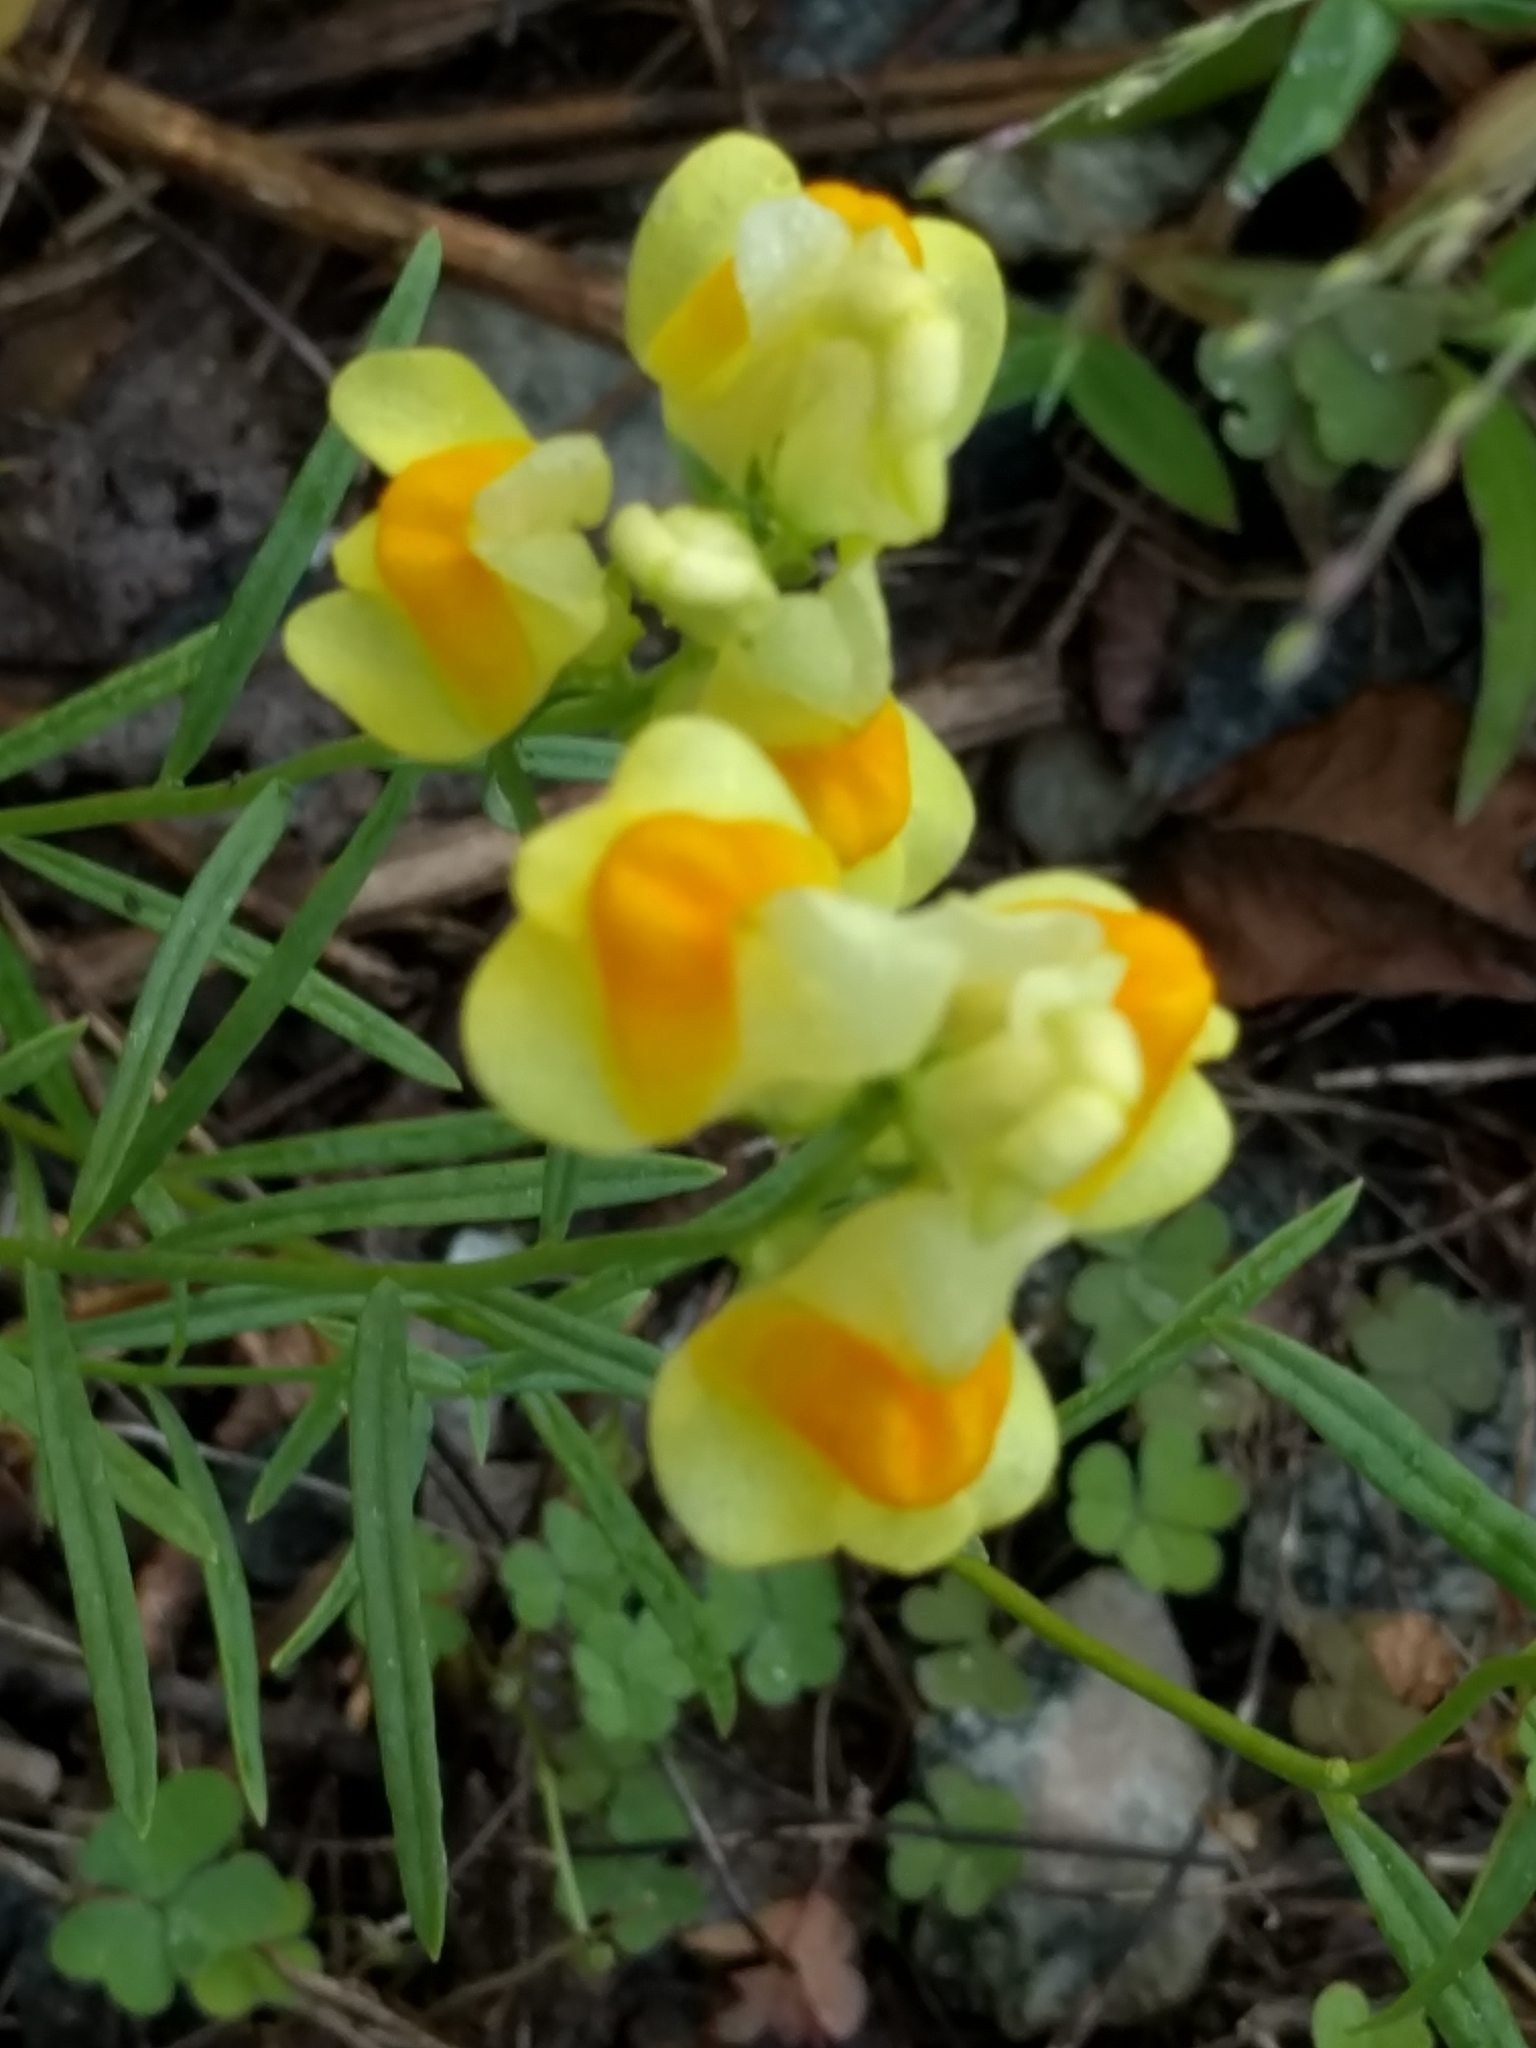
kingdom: Plantae
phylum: Tracheophyta
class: Magnoliopsida
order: Lamiales
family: Plantaginaceae
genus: Linaria
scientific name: Linaria vulgaris
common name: Butter and eggs
